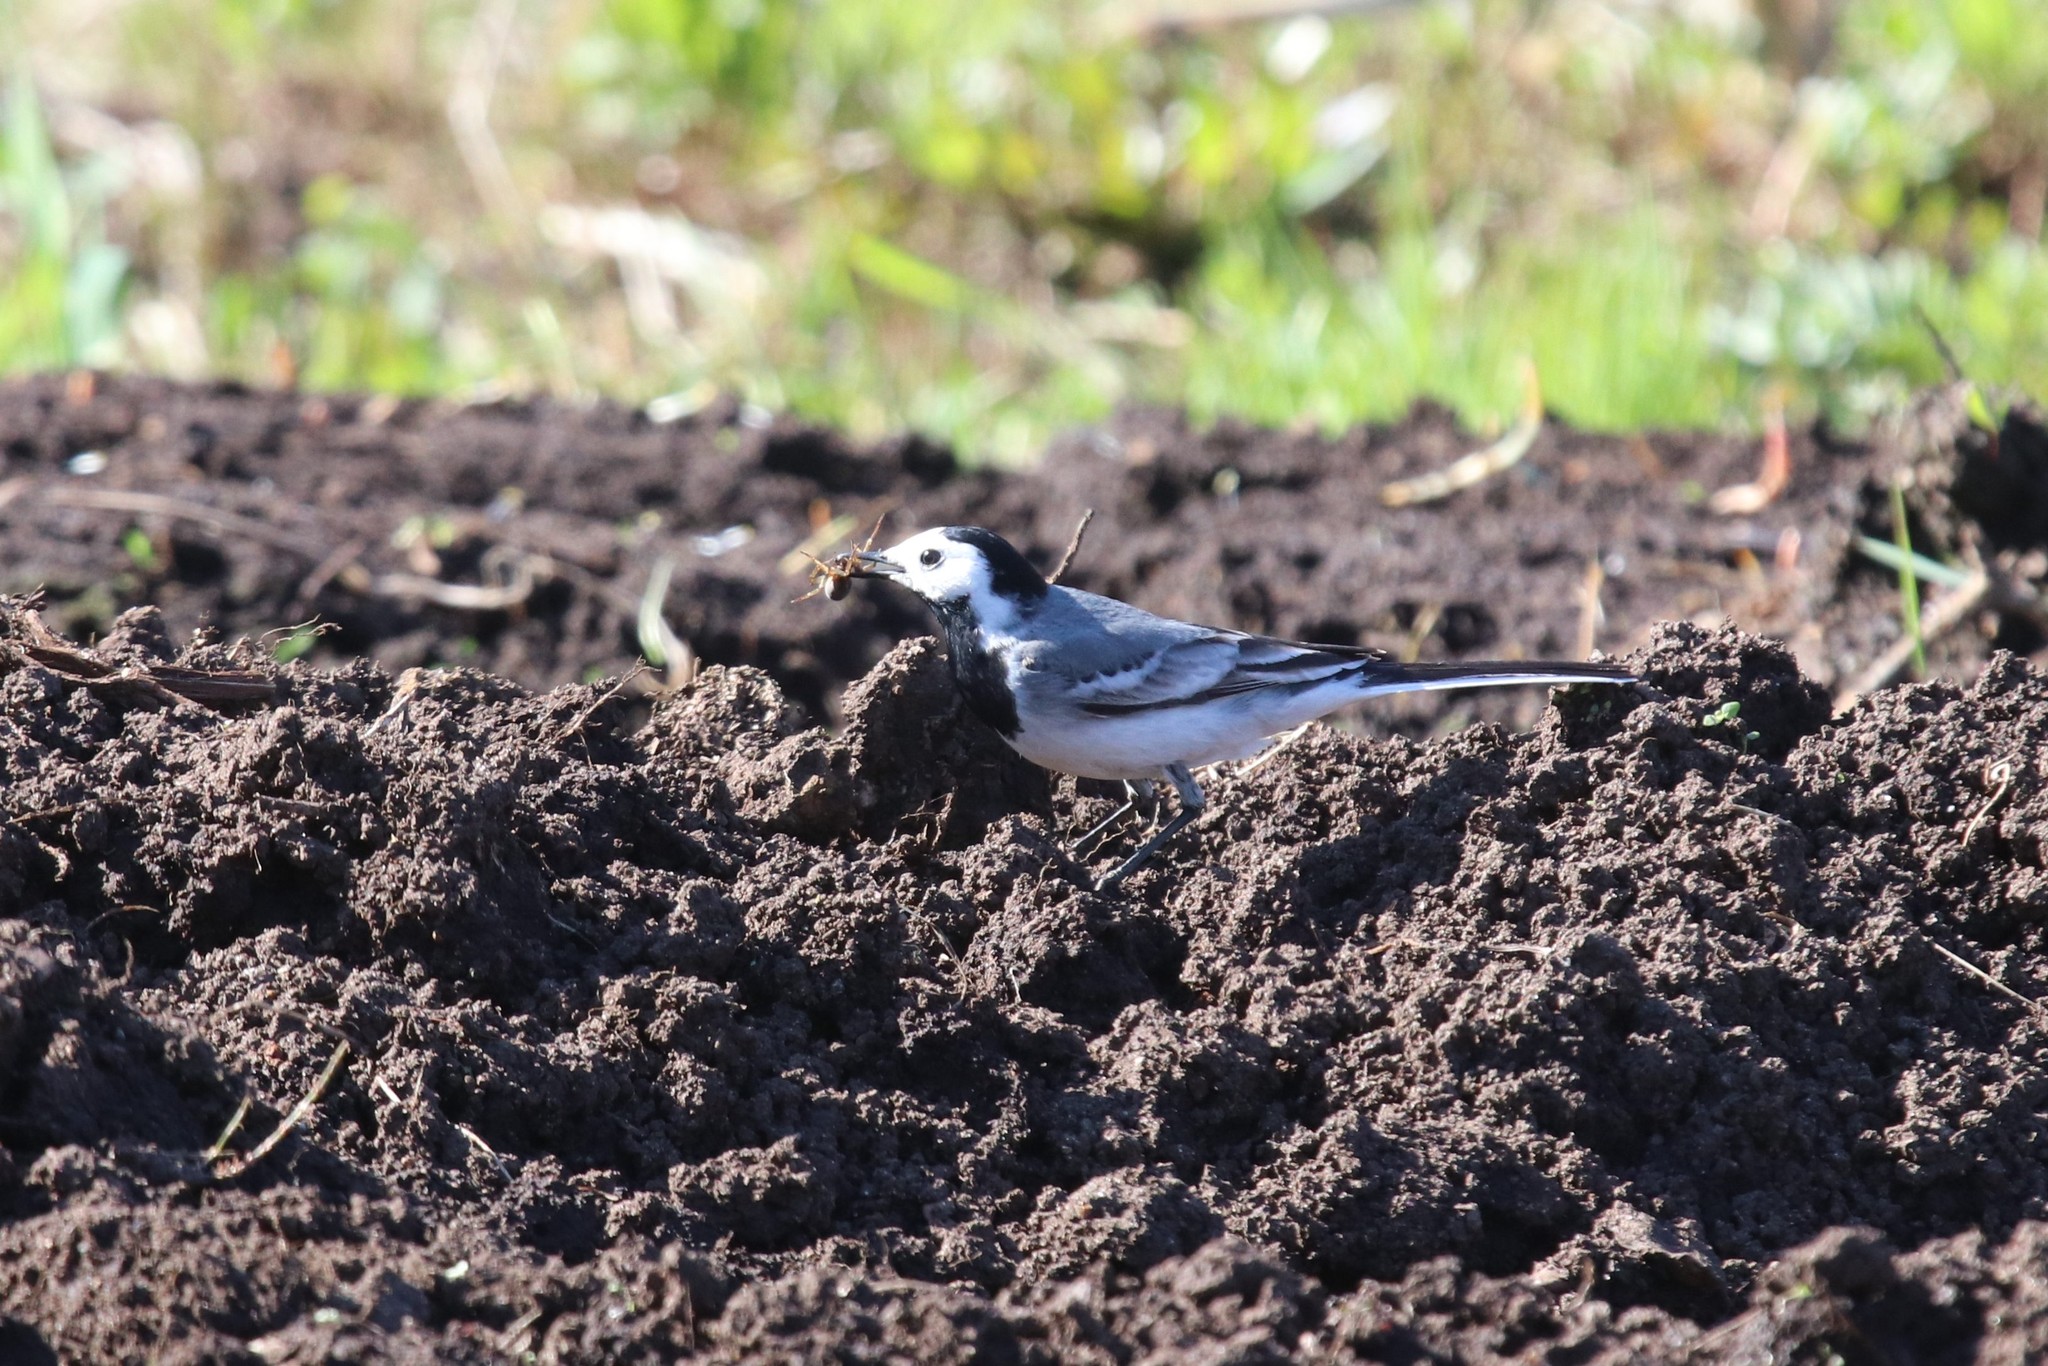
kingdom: Animalia
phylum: Chordata
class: Aves
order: Passeriformes
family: Motacillidae
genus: Motacilla
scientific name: Motacilla alba
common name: White wagtail
